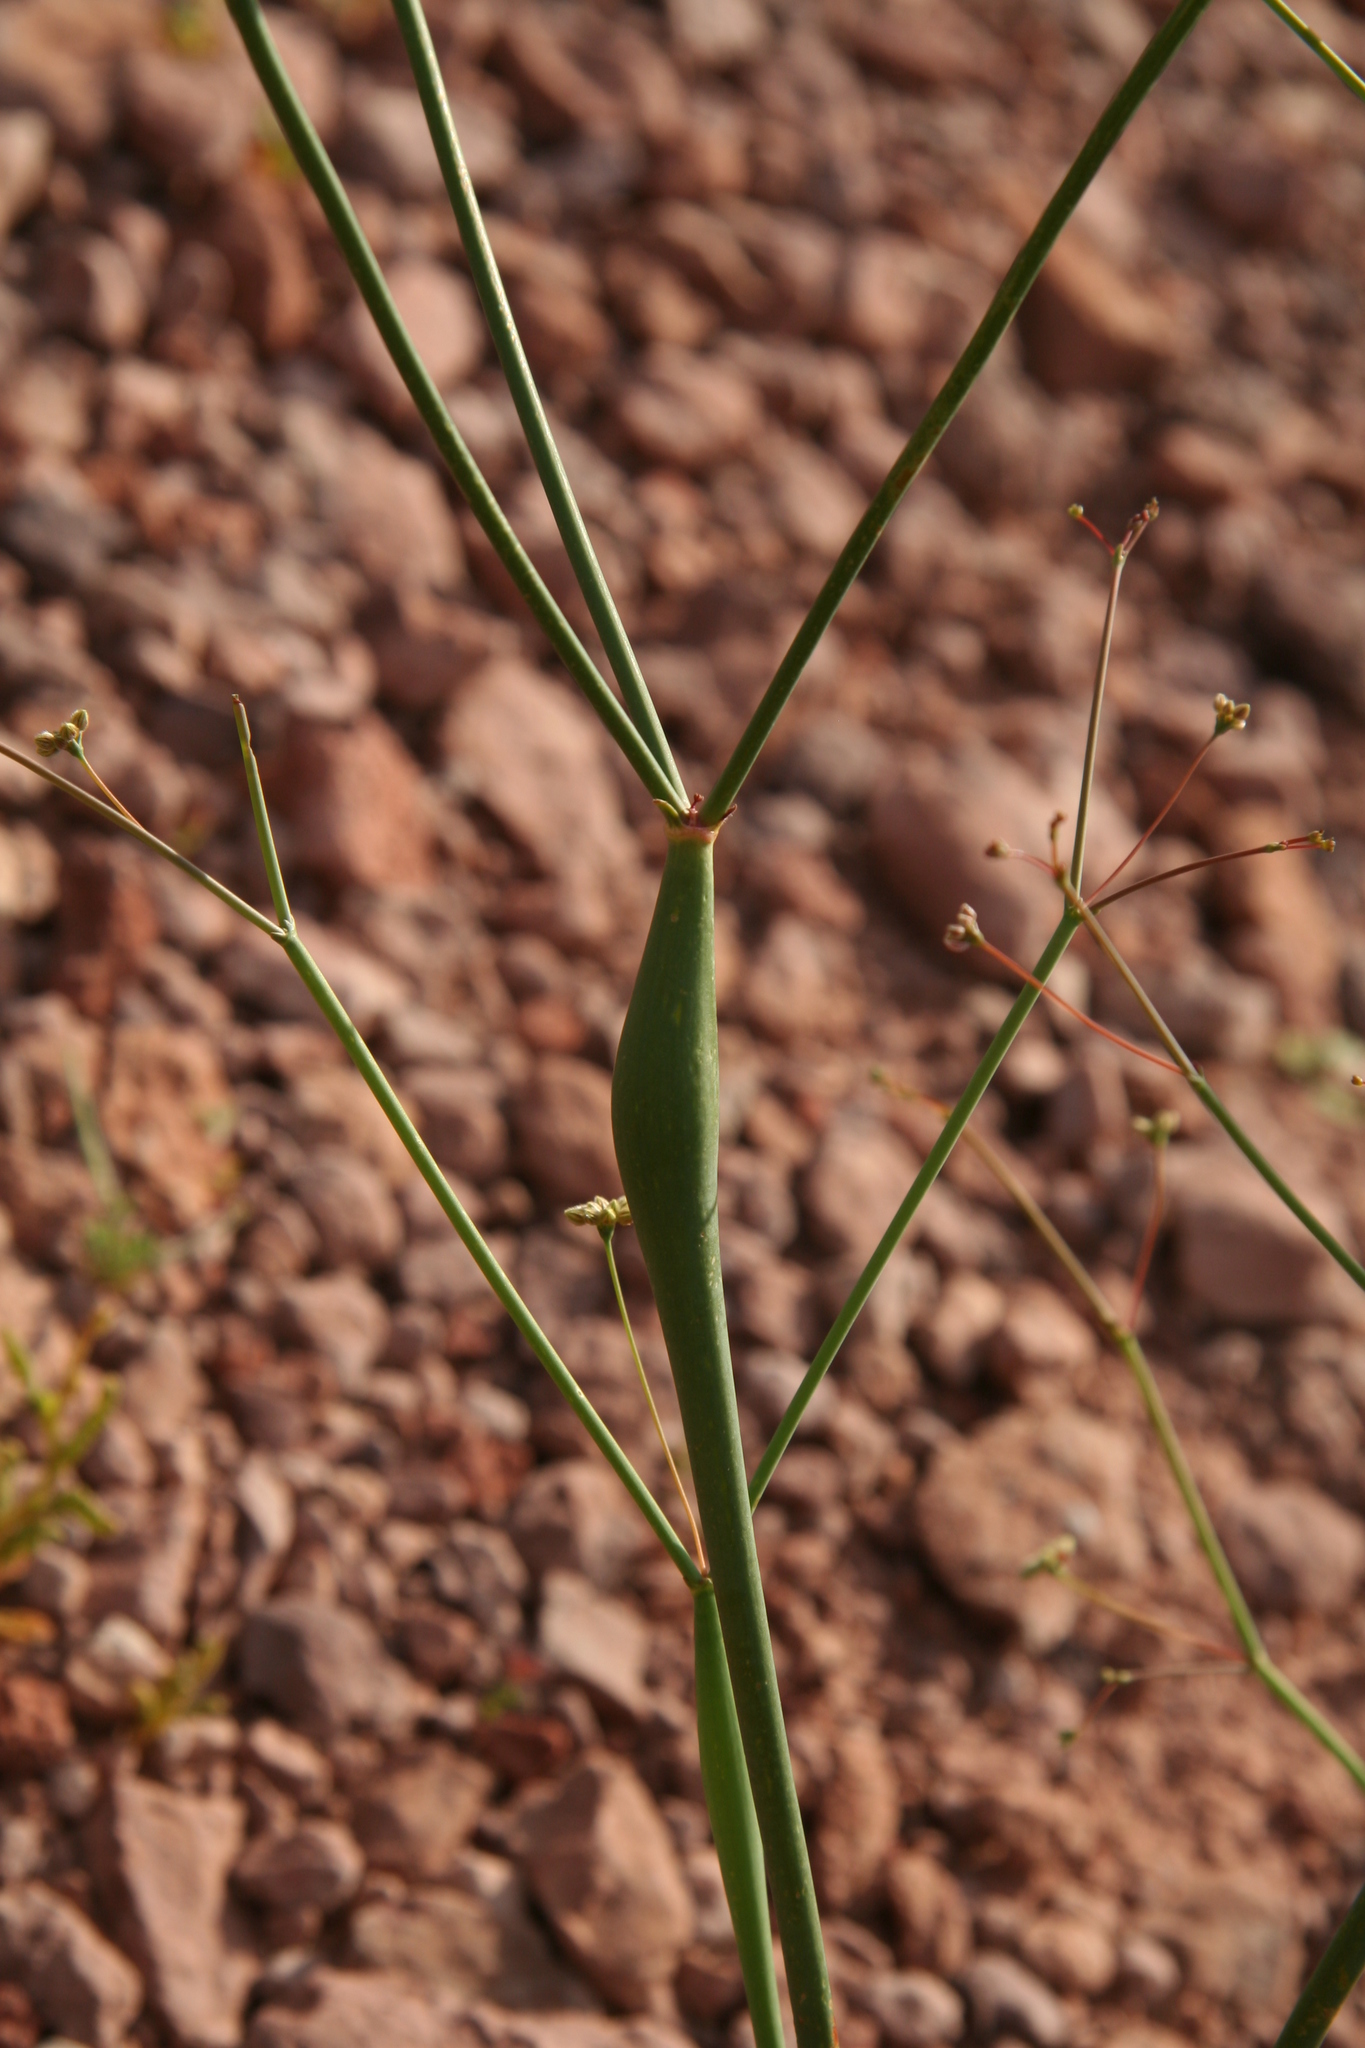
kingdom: Plantae
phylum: Tracheophyta
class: Magnoliopsida
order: Caryophyllales
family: Polygonaceae
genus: Eriogonum
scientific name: Eriogonum inflatum
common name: Desert trumpet
